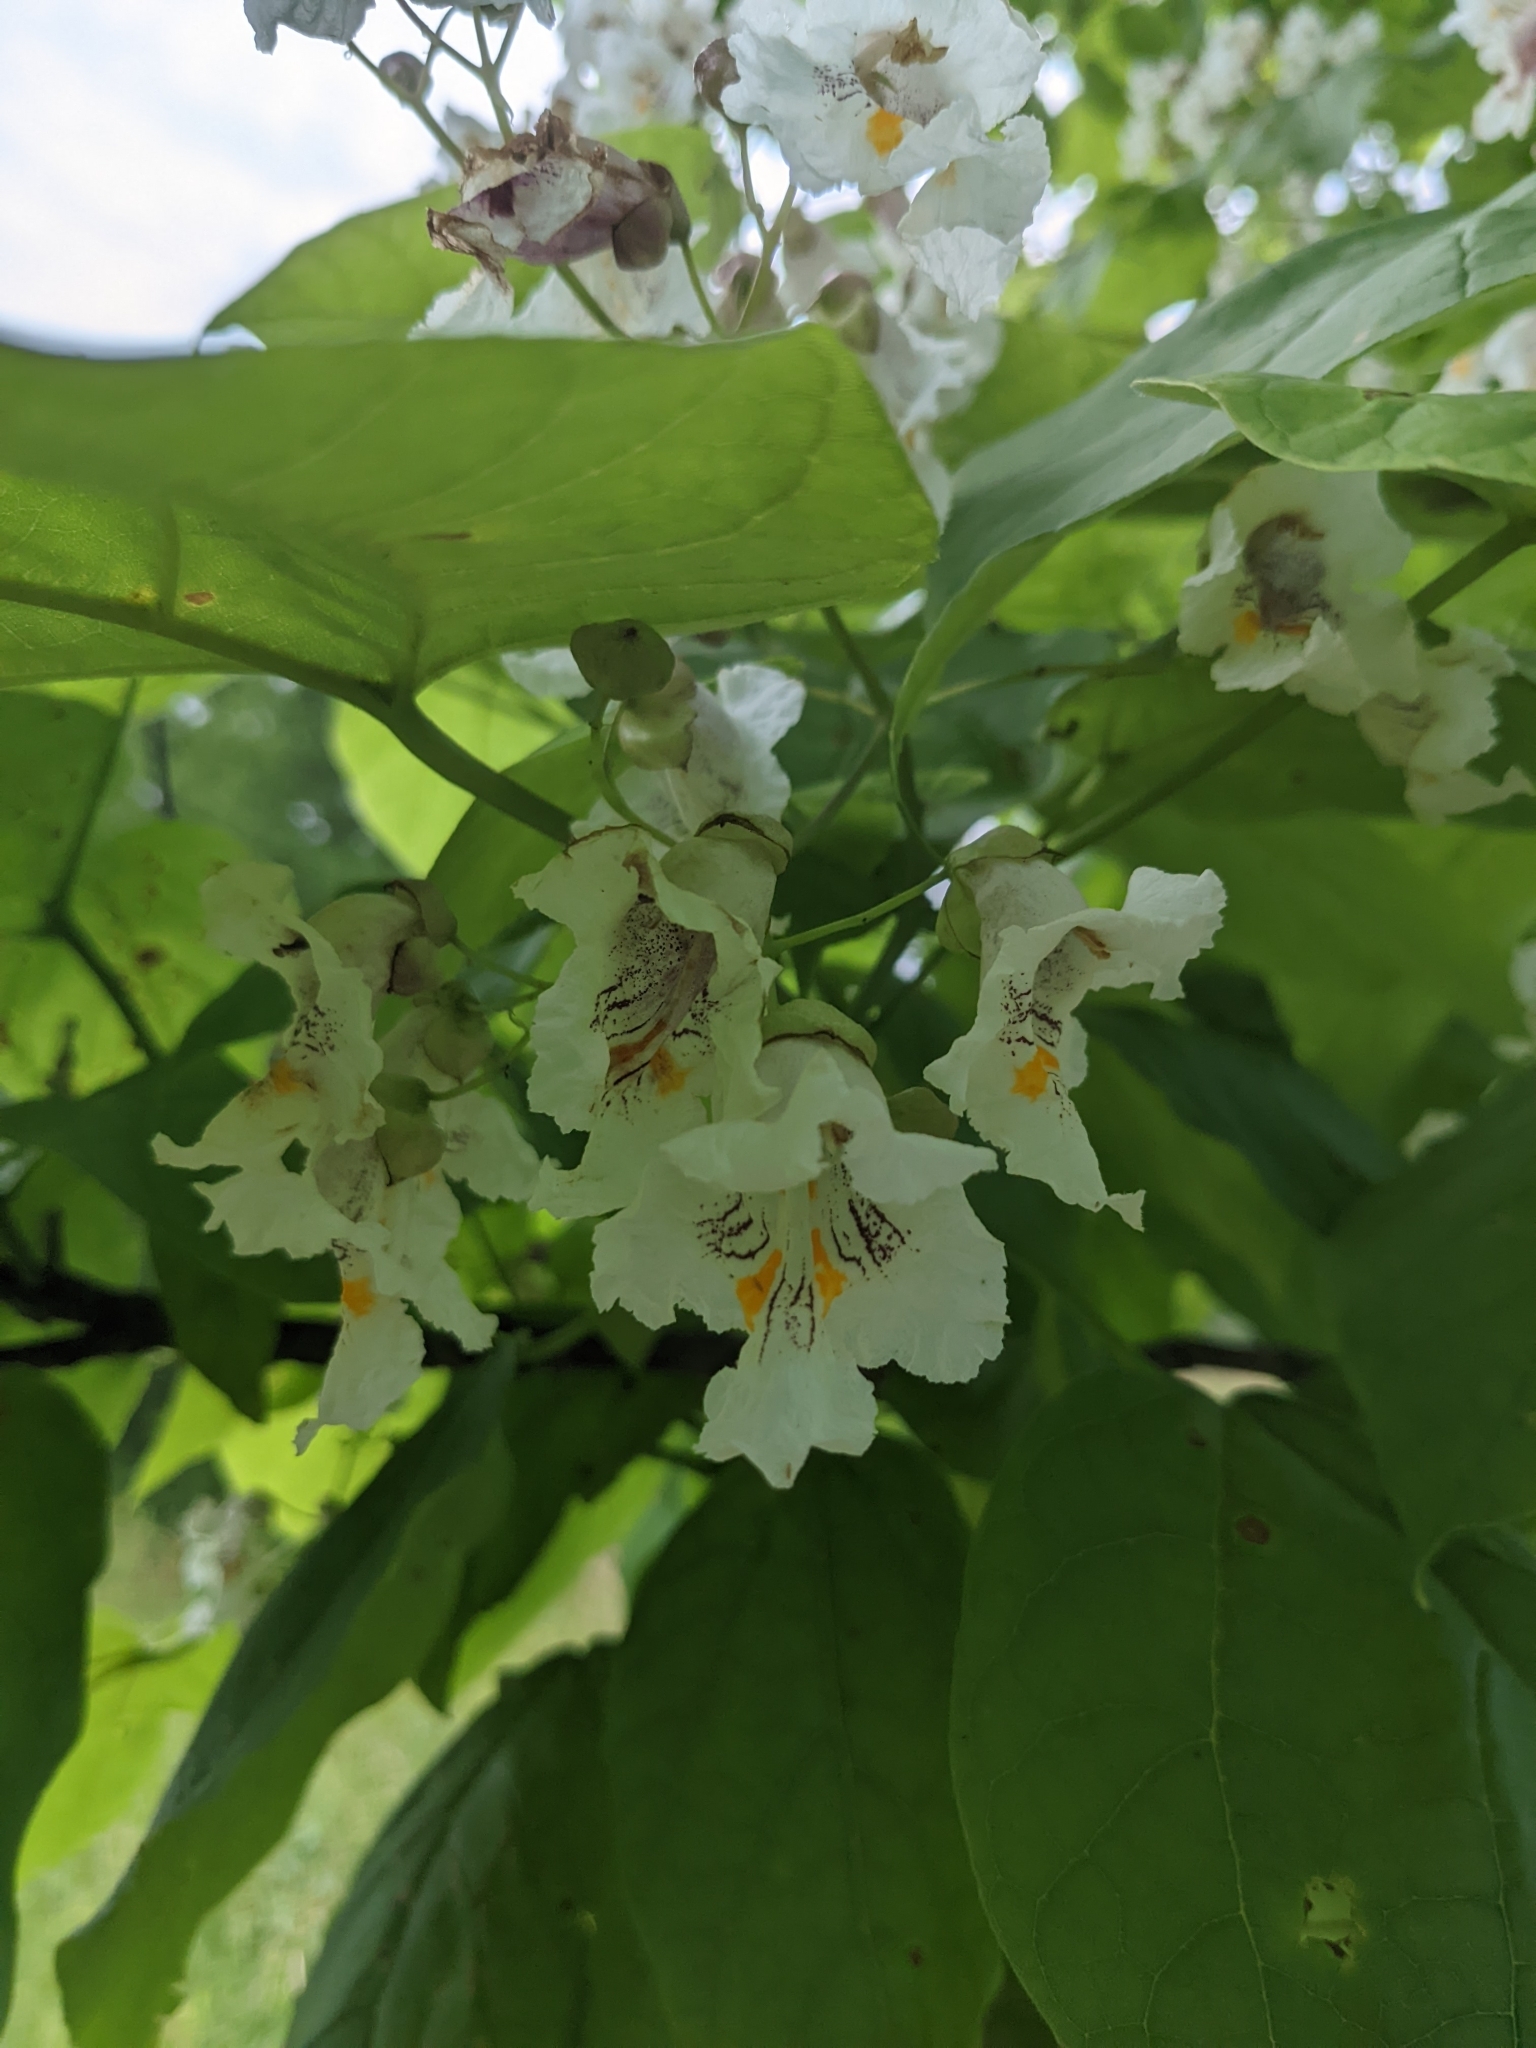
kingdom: Plantae
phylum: Tracheophyta
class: Magnoliopsida
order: Lamiales
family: Bignoniaceae
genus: Catalpa
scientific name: Catalpa speciosa
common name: Northern catalpa
